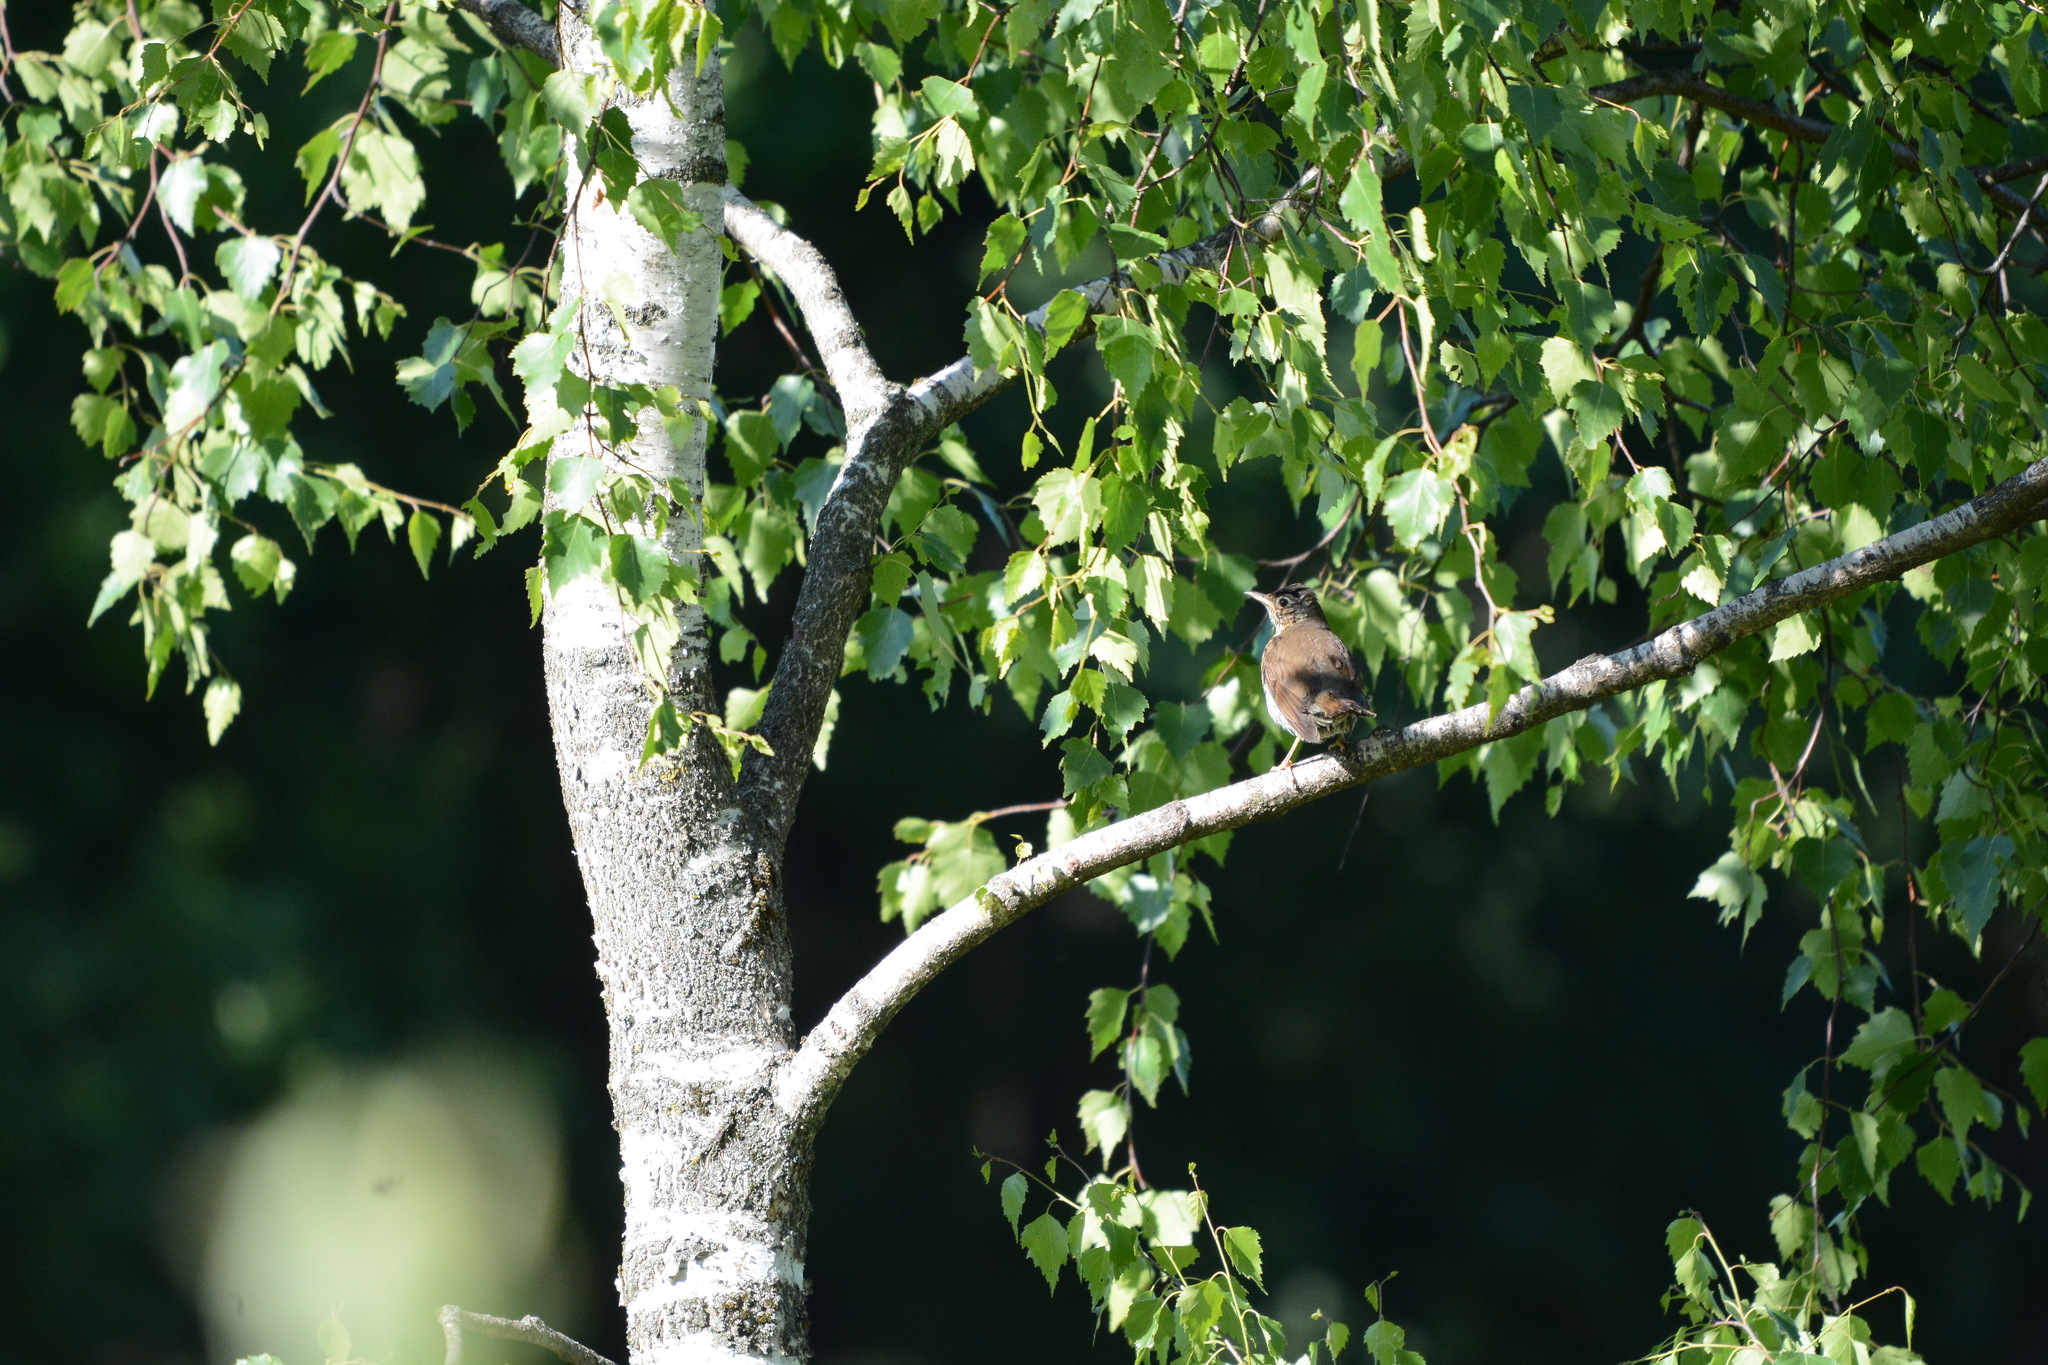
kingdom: Animalia
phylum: Chordata
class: Aves
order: Passeriformes
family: Turdidae
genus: Turdus
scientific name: Turdus philomelos
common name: Song thrush
